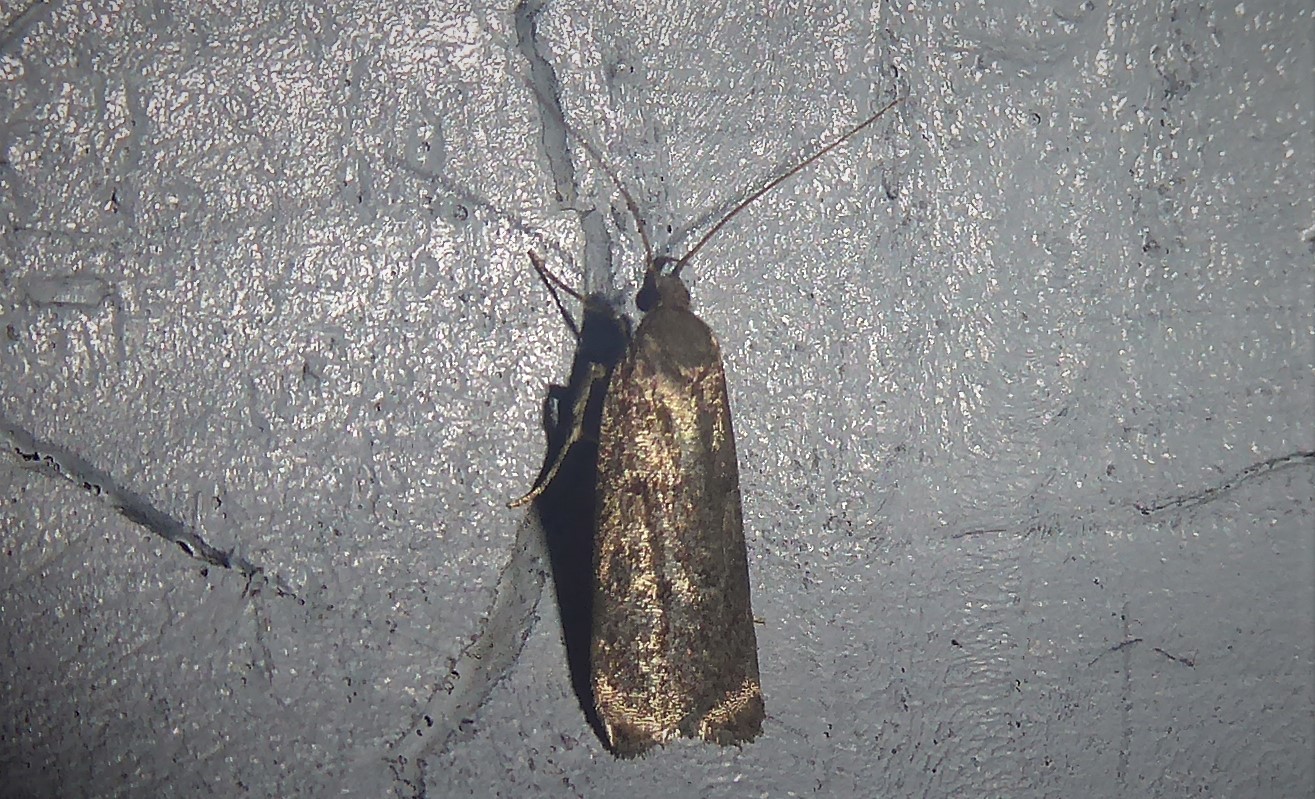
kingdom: Animalia
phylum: Arthropoda
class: Insecta
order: Lepidoptera
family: Depressariidae
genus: Phaeosaces
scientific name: Phaeosaces apocrypta
